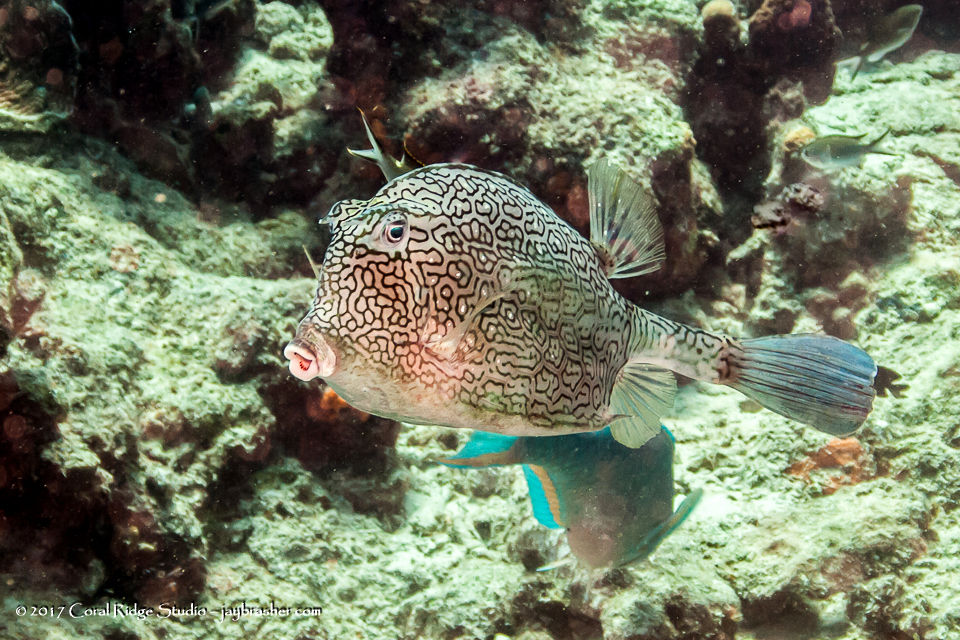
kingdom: Animalia
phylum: Chordata
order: Tetraodontiformes
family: Ostraciidae
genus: Acanthostracion
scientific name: Acanthostracion polygonius
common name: Honeycomb cowfish
